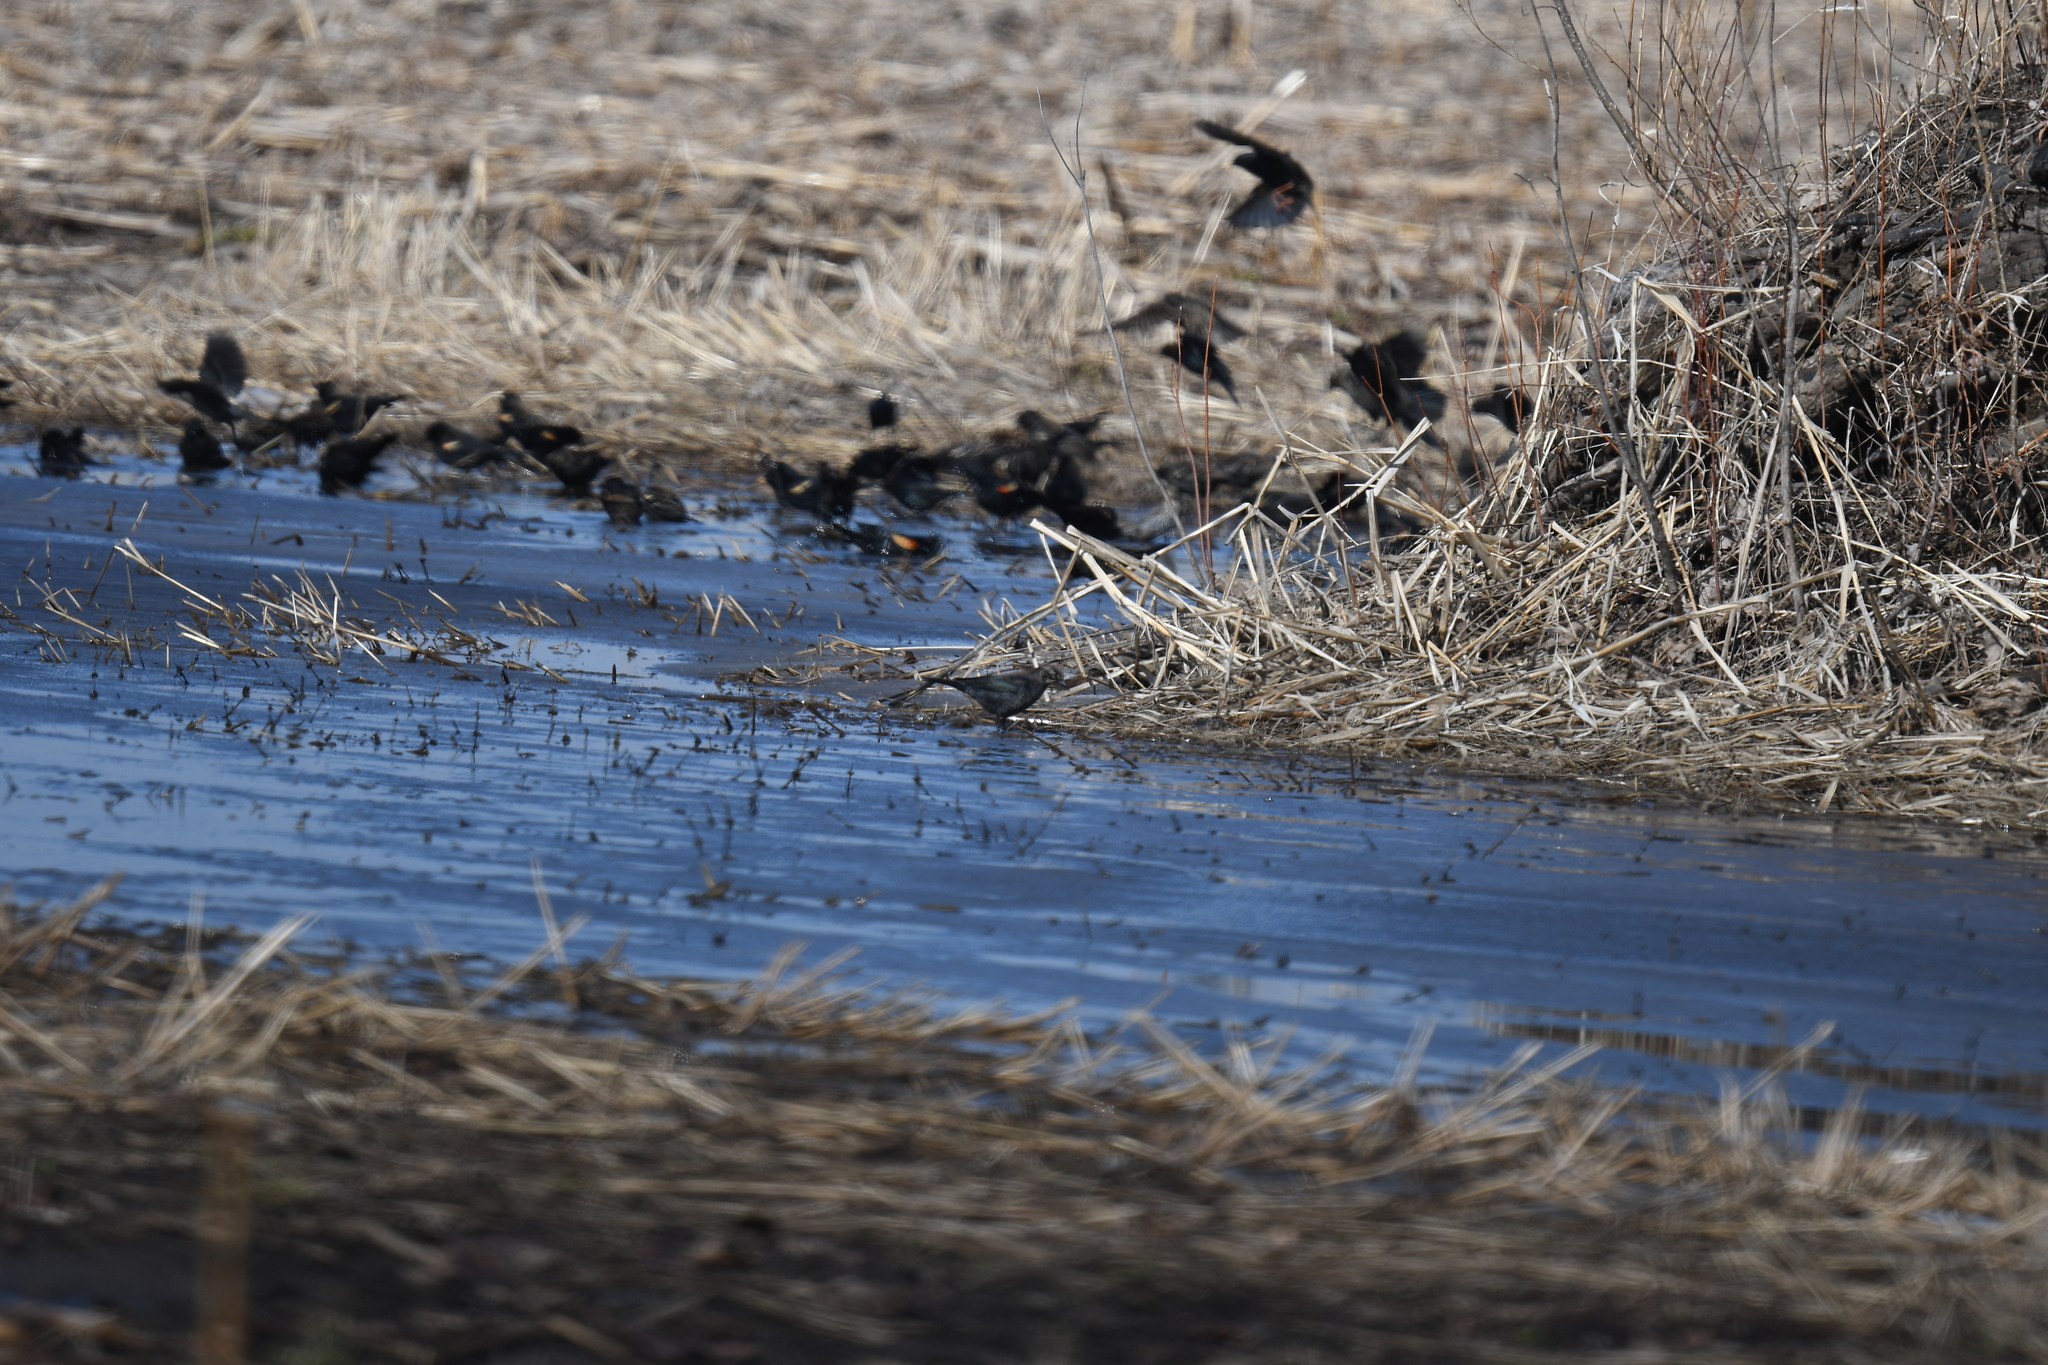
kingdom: Animalia
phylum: Chordata
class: Aves
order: Passeriformes
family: Icteridae
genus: Euphagus
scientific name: Euphagus carolinus
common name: Rusty blackbird
